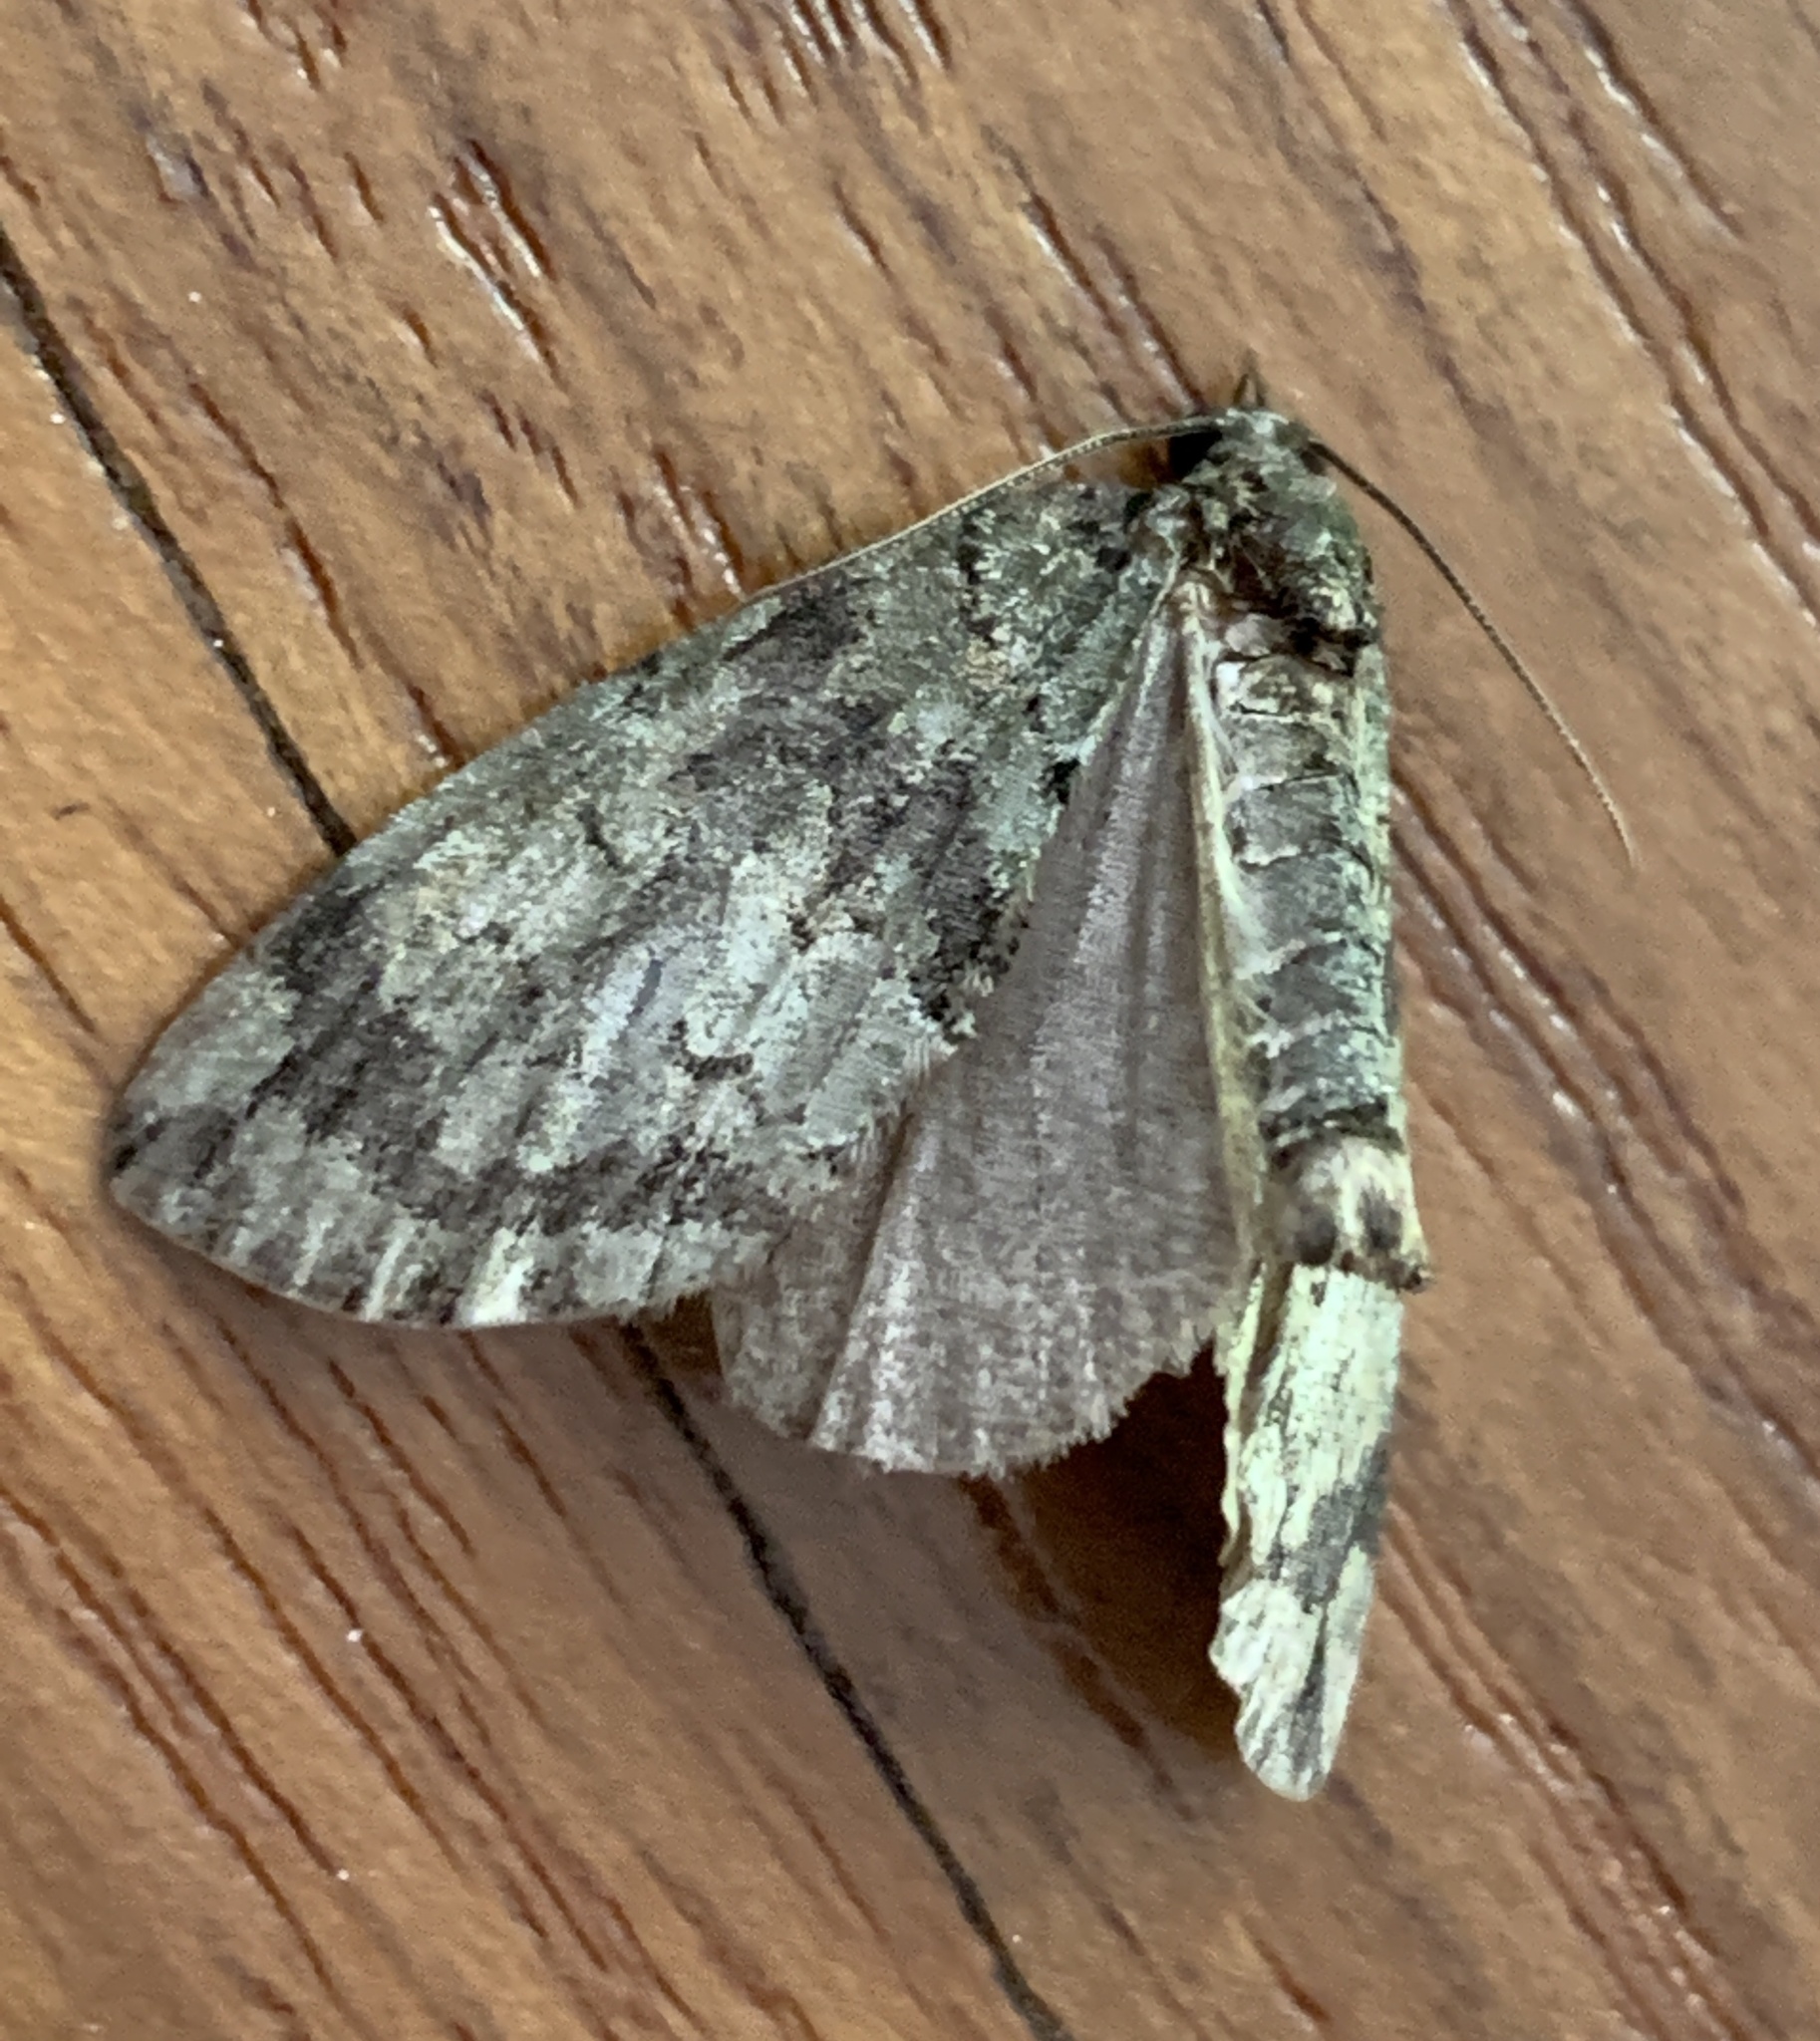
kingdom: Animalia
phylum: Arthropoda
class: Insecta
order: Lepidoptera
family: Geometridae
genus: Hydriomena
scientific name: Hydriomena transfigurata
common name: Transfigured hydriomena
